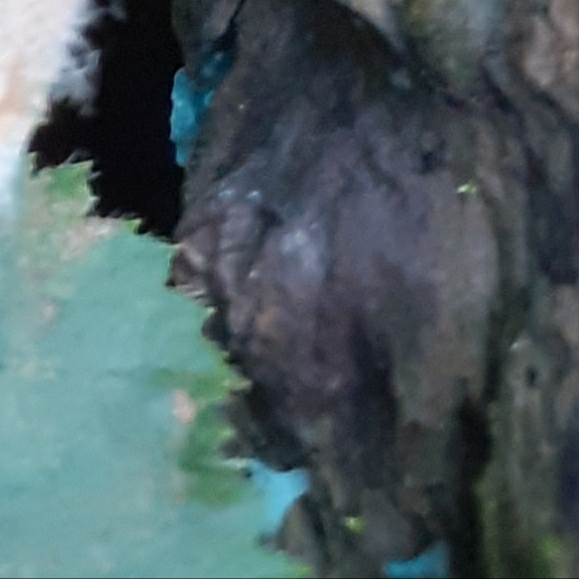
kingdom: Fungi
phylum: Ascomycota
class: Leotiomycetes
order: Helotiales
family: Chlorociboriaceae
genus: Chlorociboria
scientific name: Chlorociboria aeruginascens
